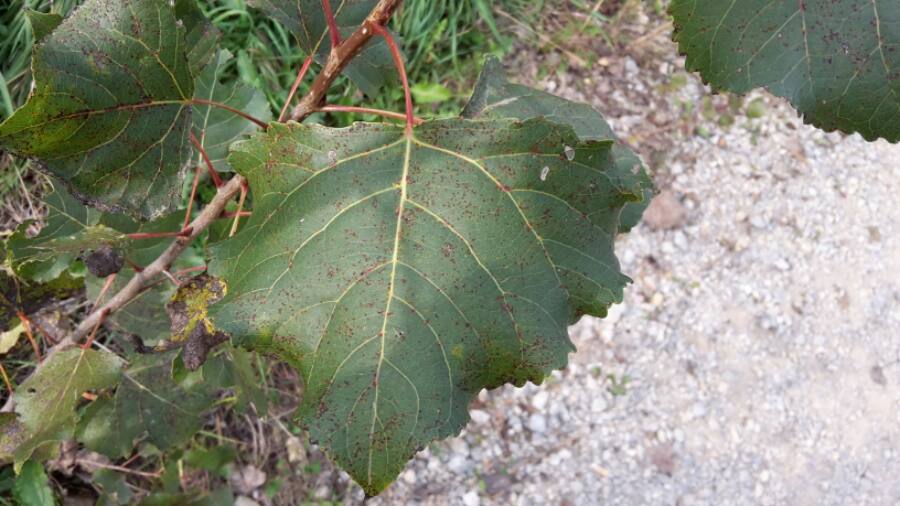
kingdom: Plantae
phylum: Tracheophyta
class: Magnoliopsida
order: Malpighiales
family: Salicaceae
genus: Populus
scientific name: Populus nigra
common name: Black poplar
